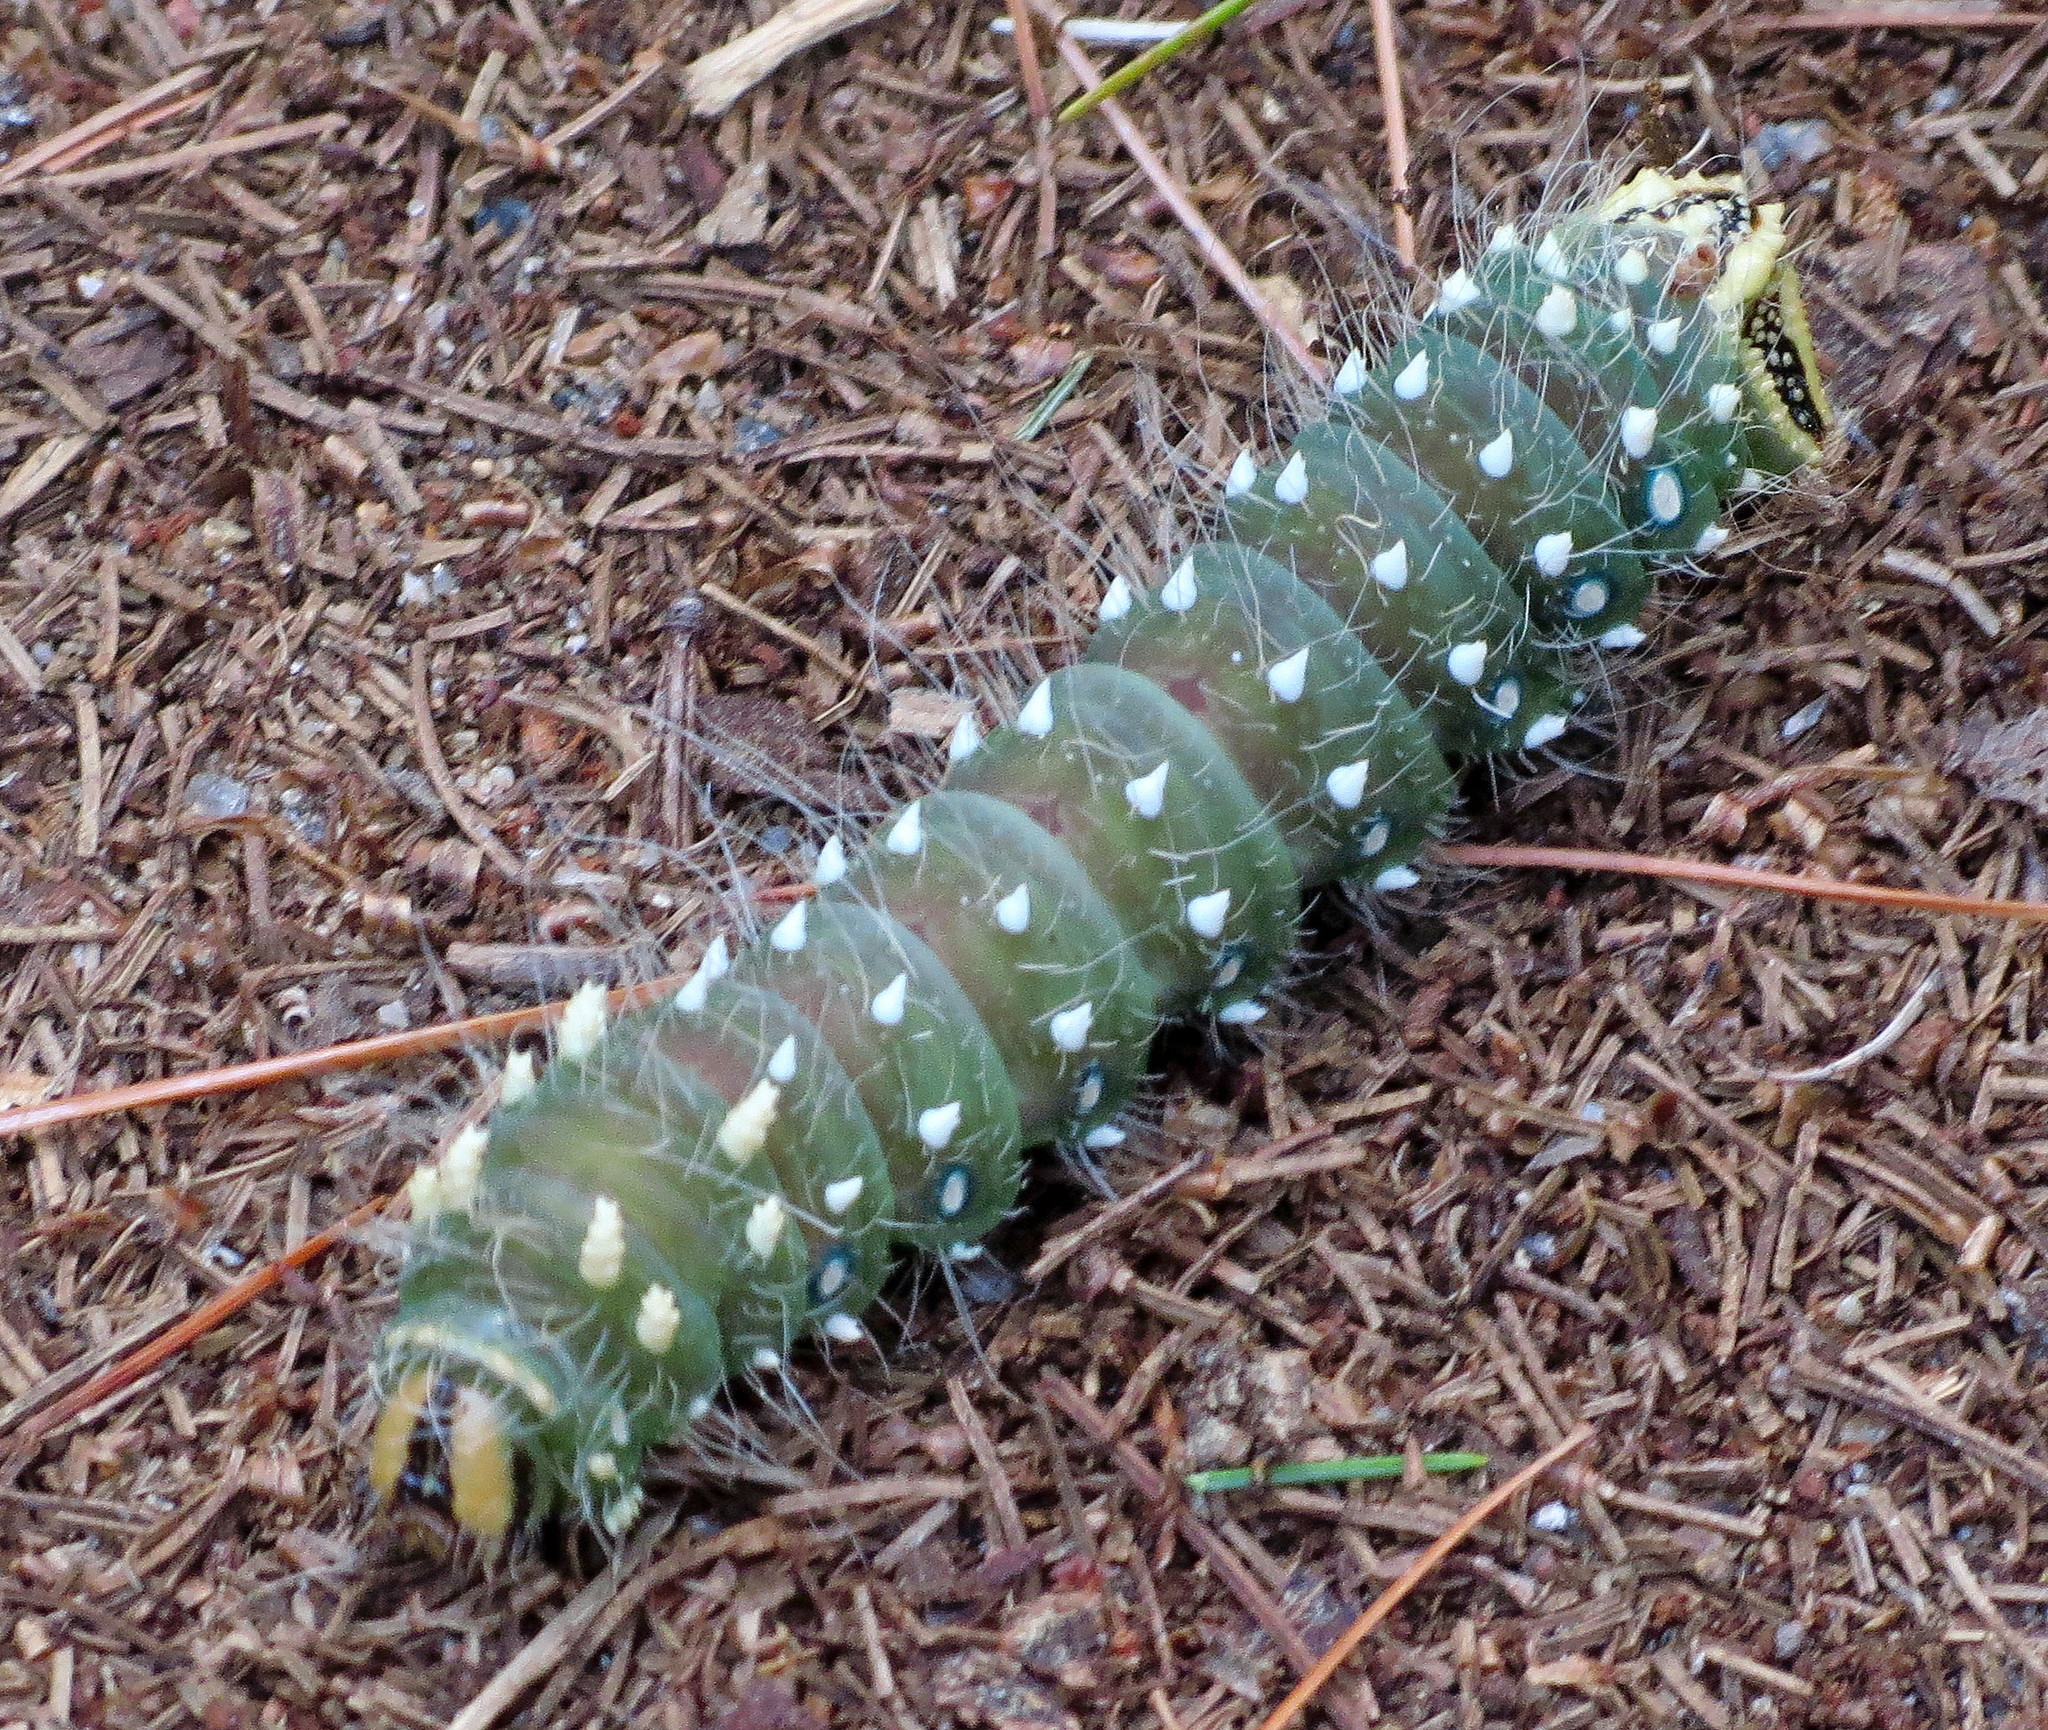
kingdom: Animalia
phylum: Arthropoda
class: Insecta
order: Lepidoptera
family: Saturniidae
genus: Eacles
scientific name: Eacles
